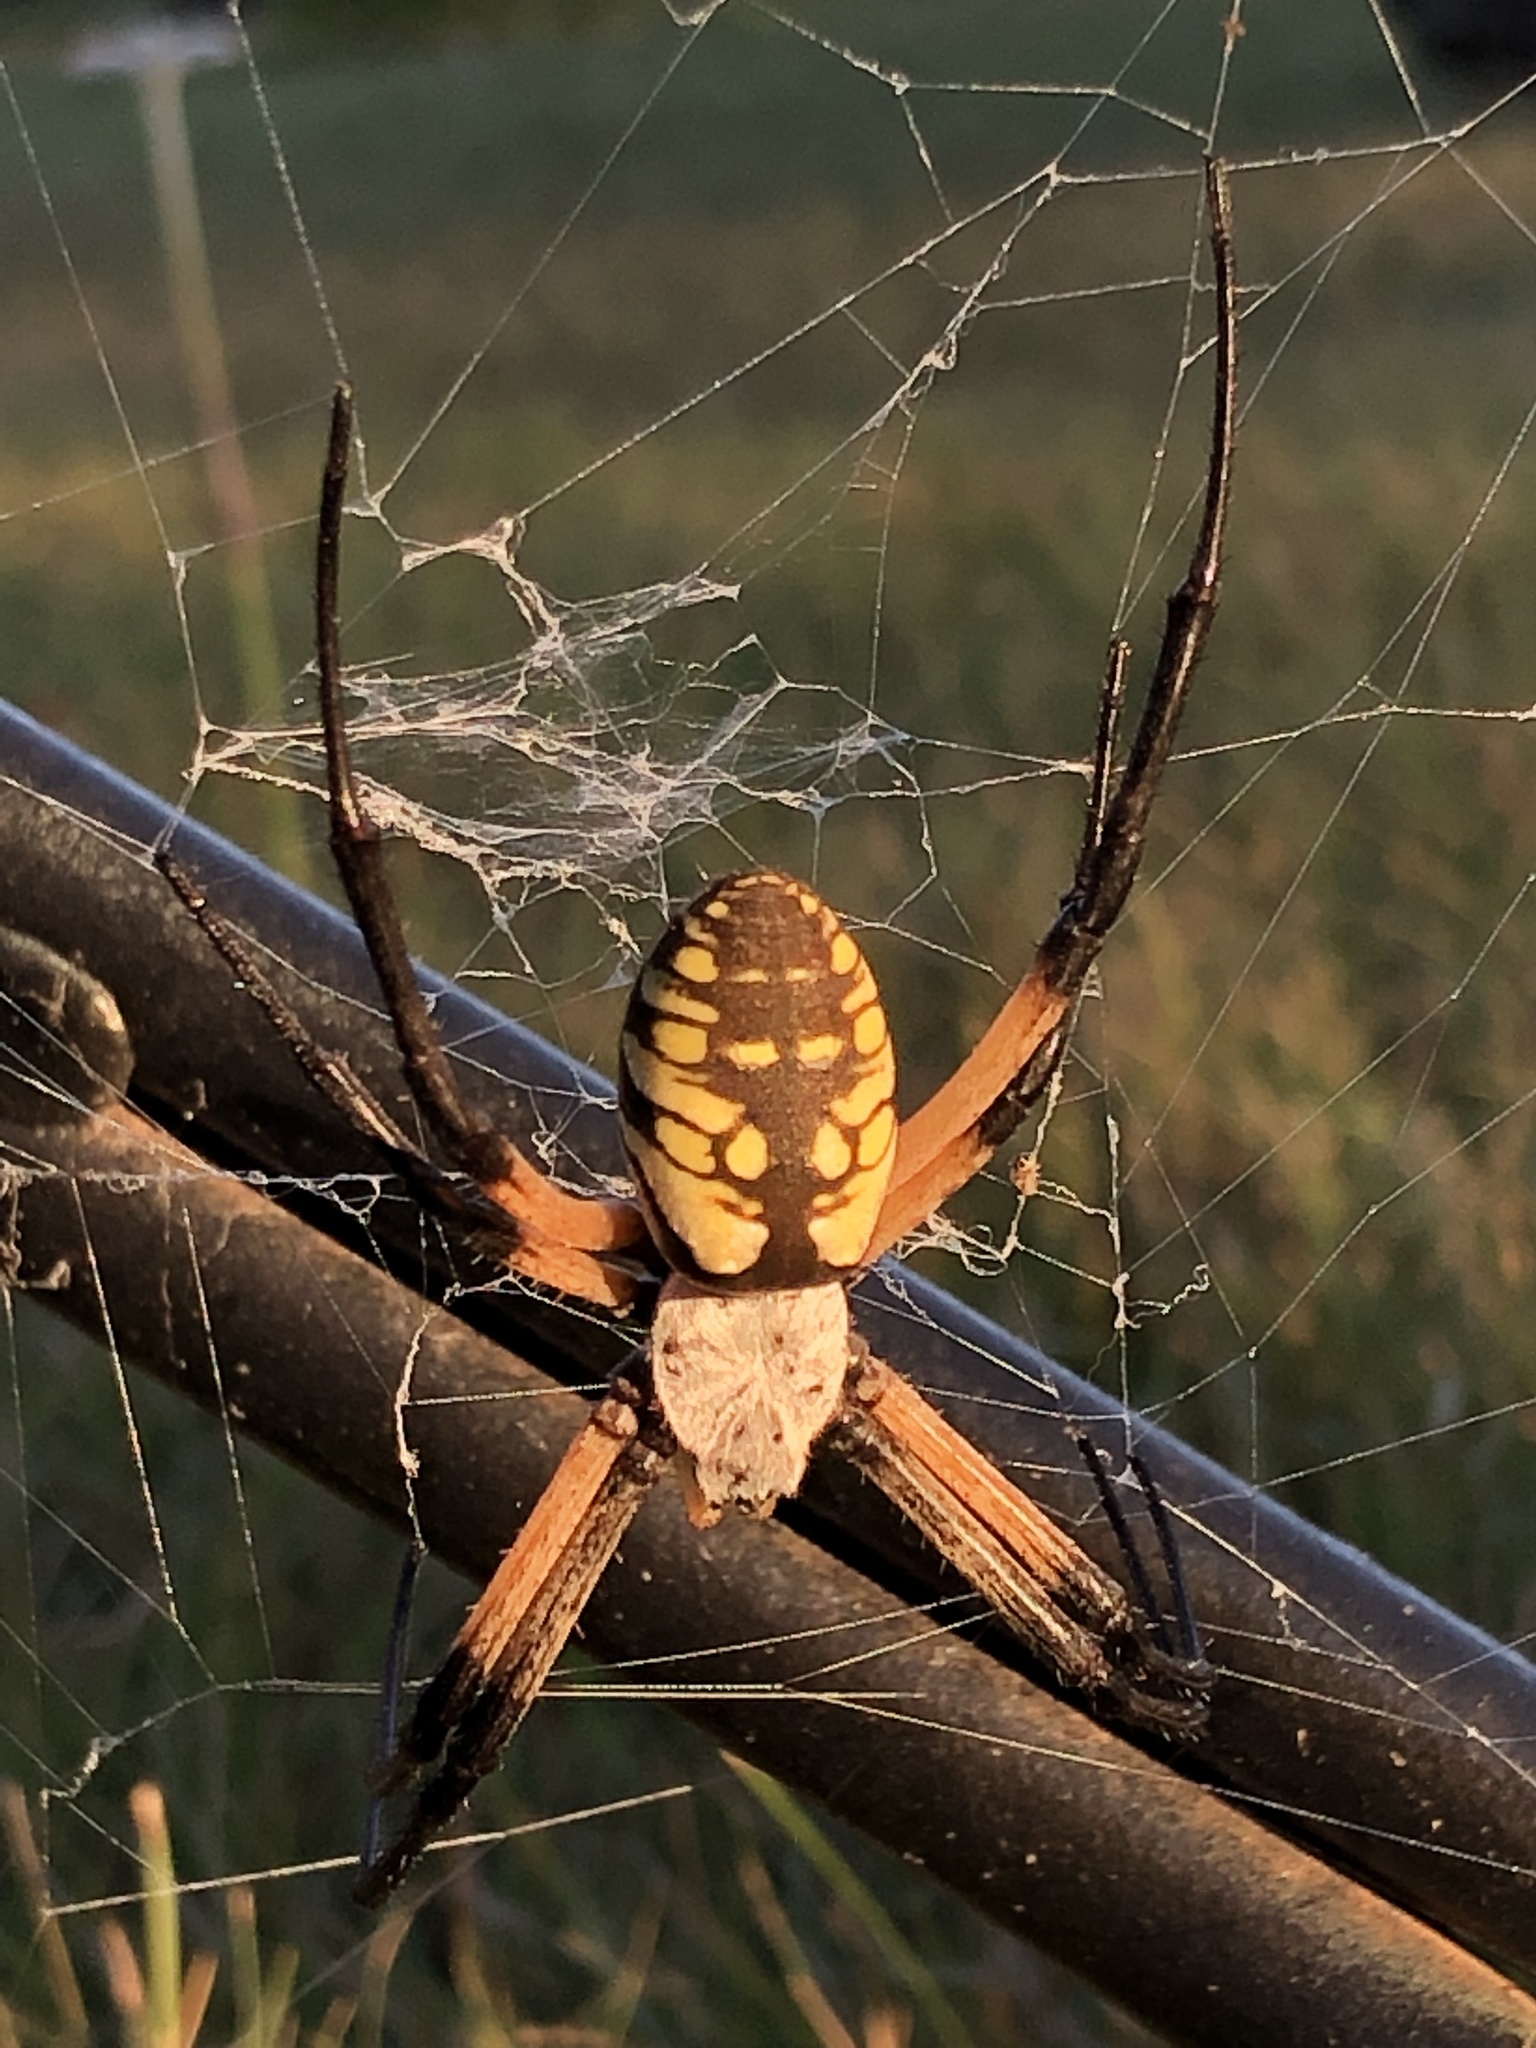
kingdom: Animalia
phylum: Arthropoda
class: Arachnida
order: Araneae
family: Araneidae
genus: Argiope
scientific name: Argiope aurantia
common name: Orb weavers
